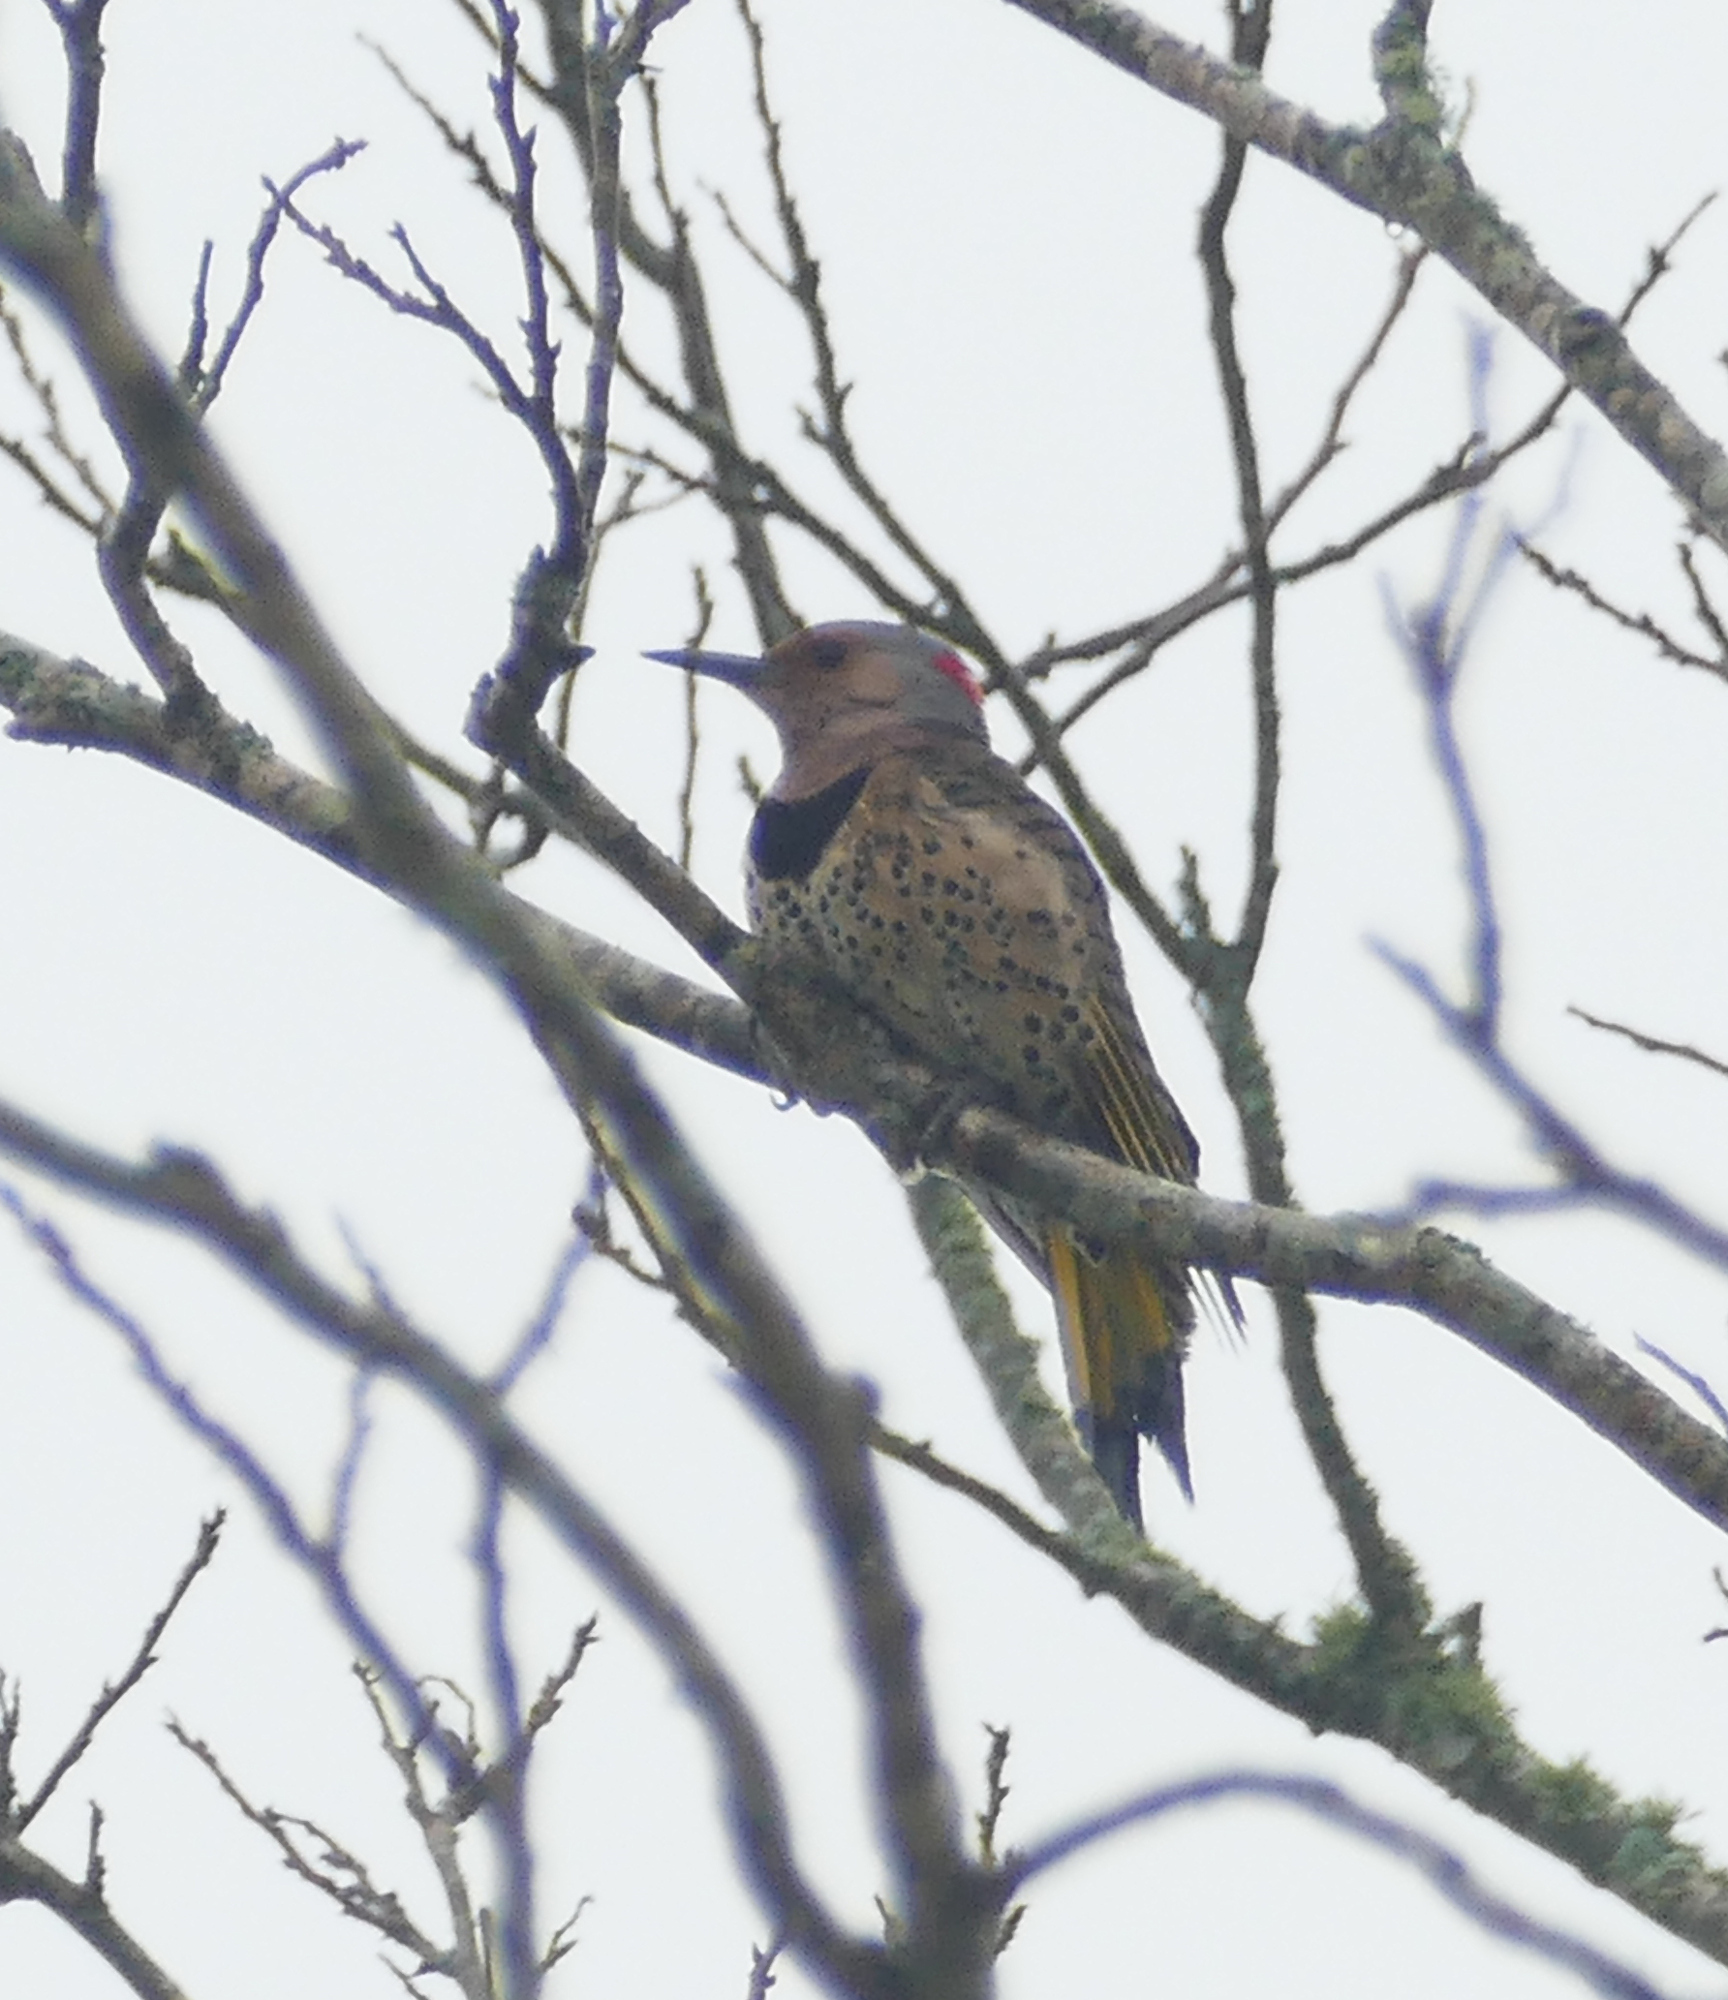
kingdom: Animalia
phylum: Chordata
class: Aves
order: Piciformes
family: Picidae
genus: Colaptes
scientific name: Colaptes auratus
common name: Northern flicker
